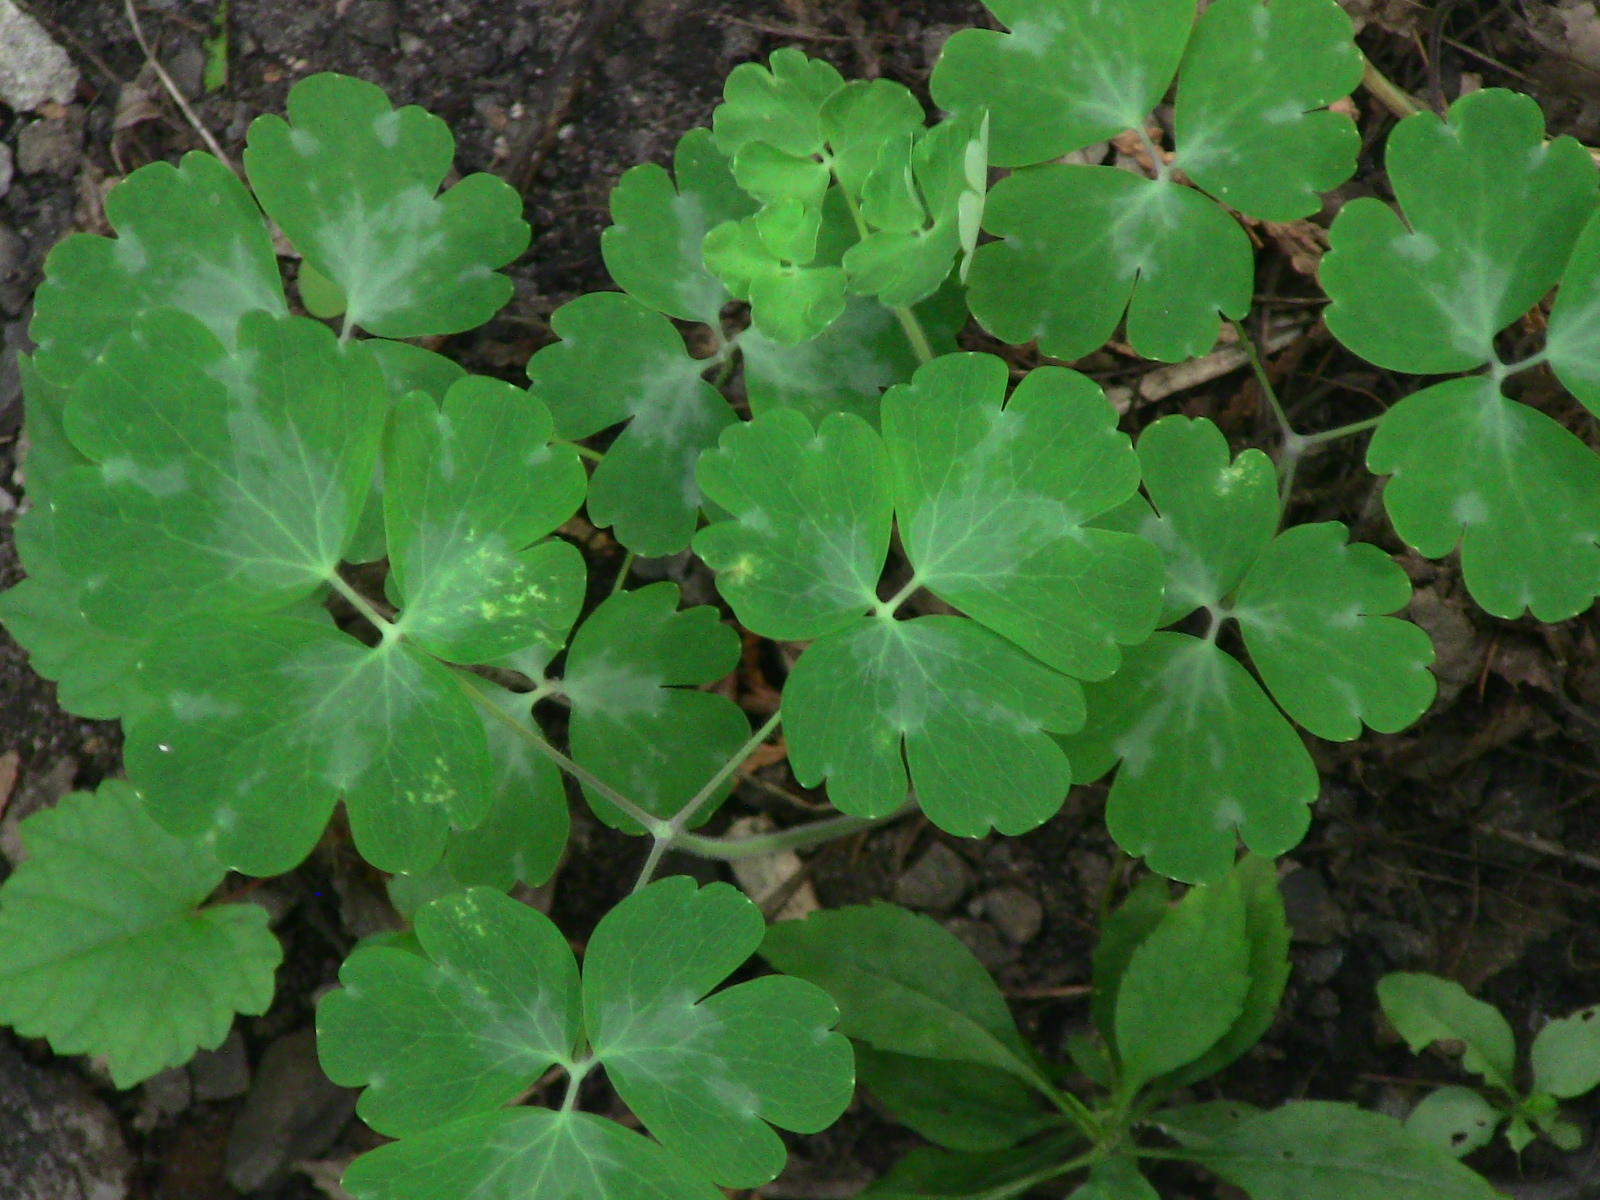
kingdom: Plantae
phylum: Tracheophyta
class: Magnoliopsida
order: Ranunculales
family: Ranunculaceae
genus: Aquilegia
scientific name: Aquilegia
